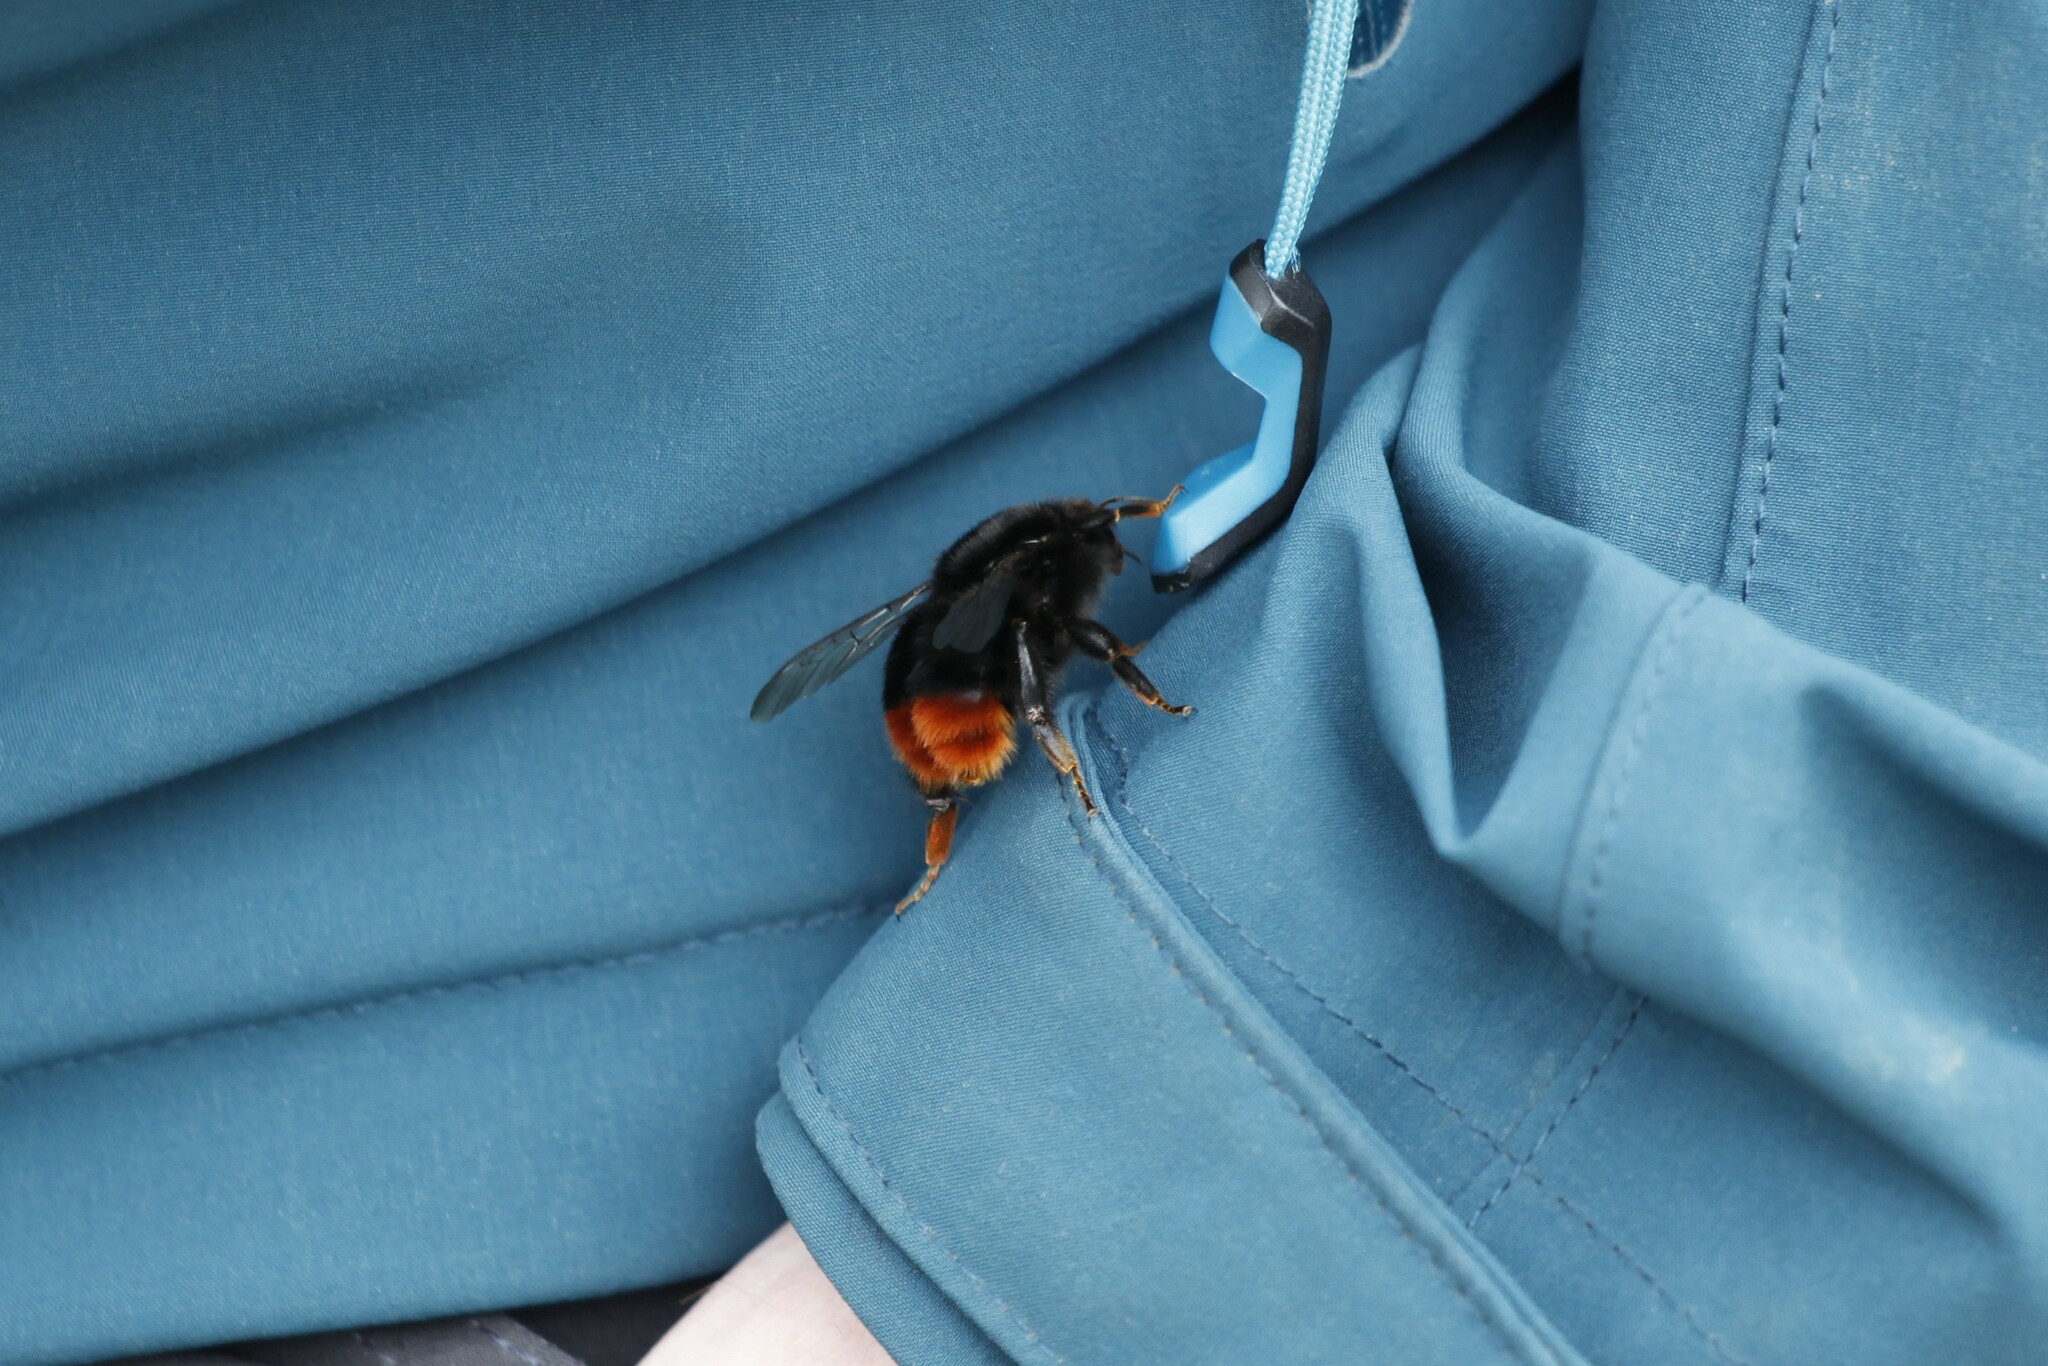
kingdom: Animalia
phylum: Arthropoda
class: Insecta
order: Hymenoptera
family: Apidae
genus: Bombus
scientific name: Bombus lapidarius
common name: Large red-tailed humble-bee
